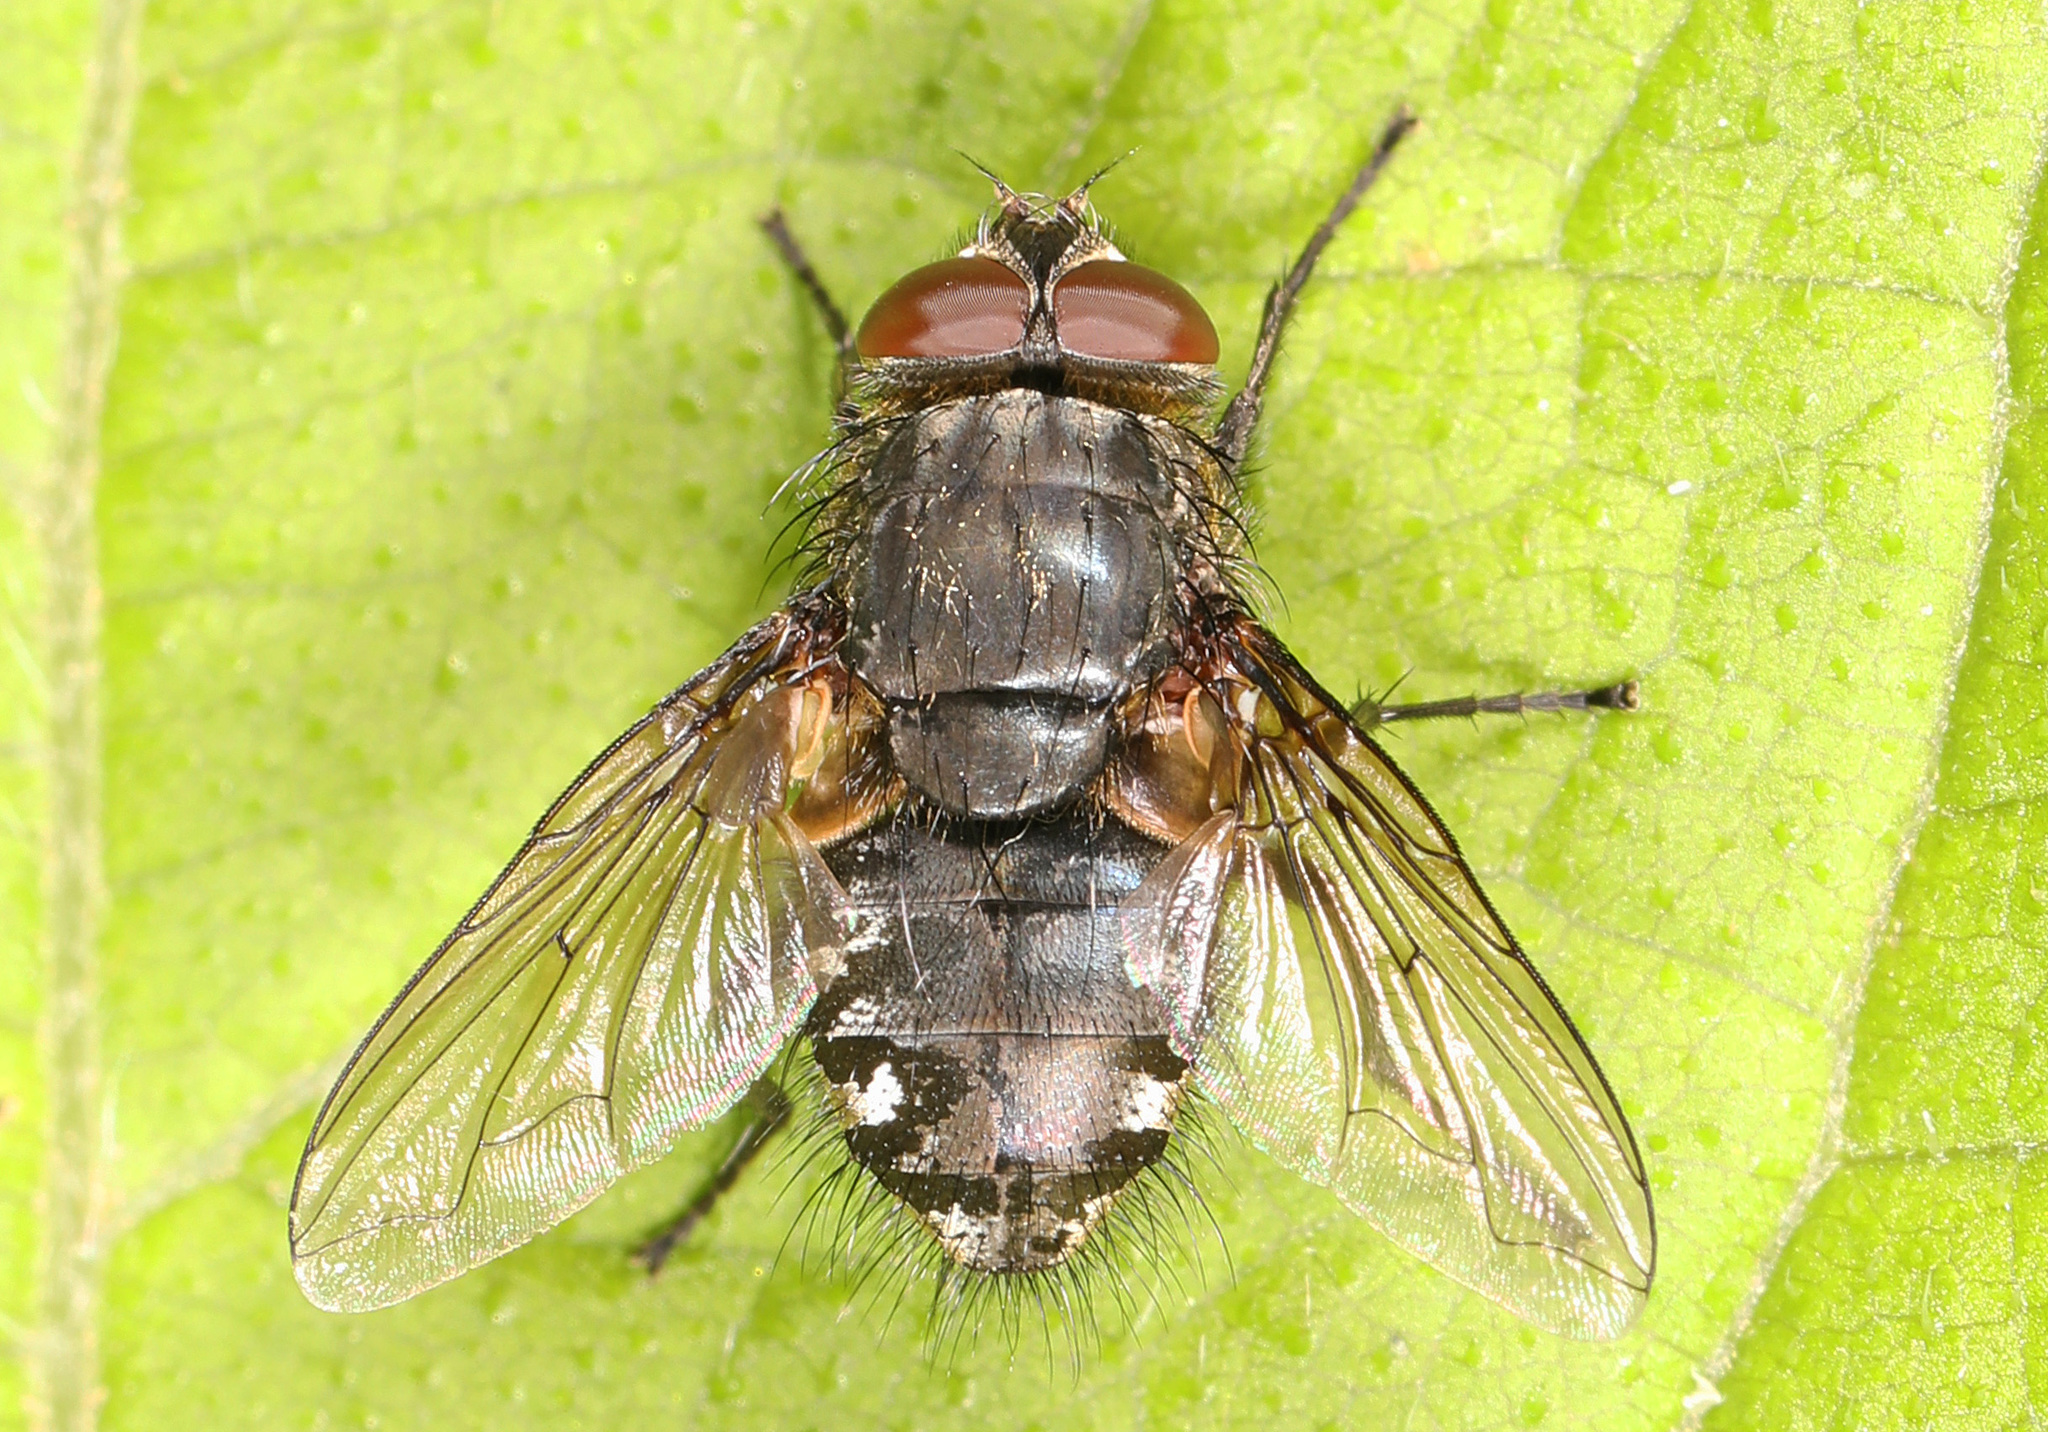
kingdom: Animalia
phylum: Arthropoda
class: Insecta
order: Diptera
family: Polleniidae
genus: Pollenia
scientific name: Pollenia
